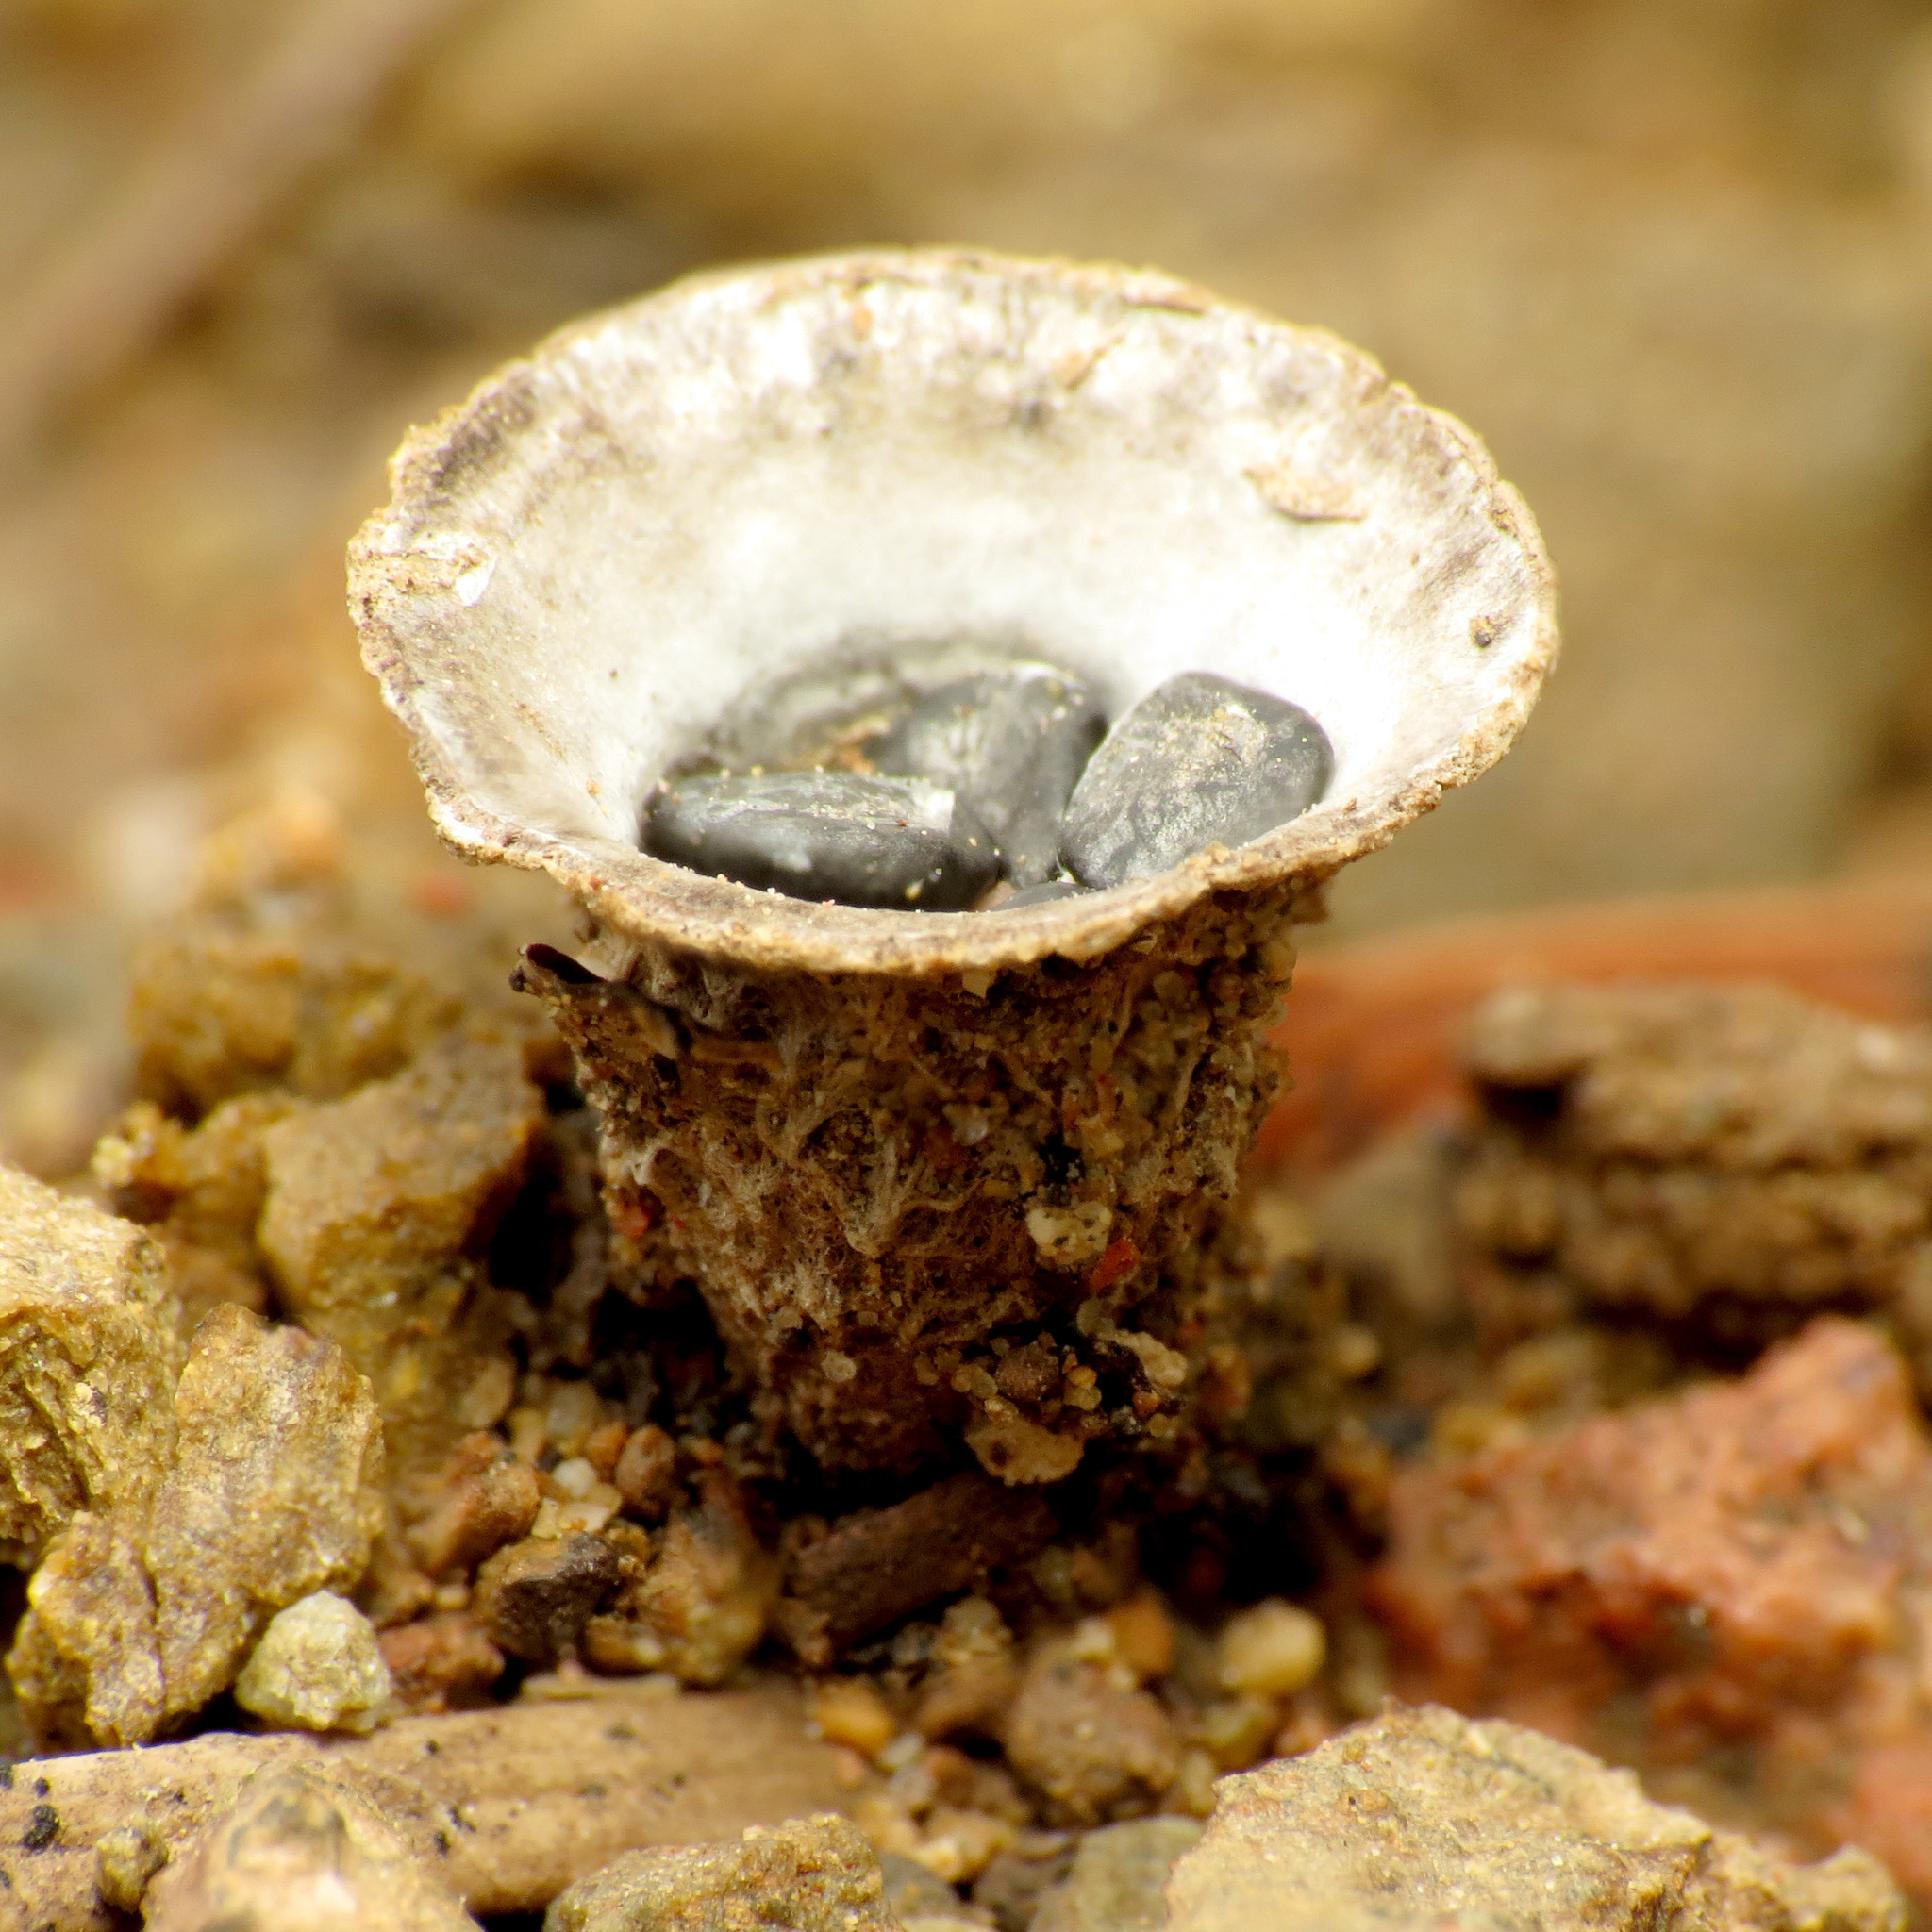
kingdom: Fungi
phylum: Basidiomycota
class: Agaricomycetes
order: Agaricales
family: Agaricaceae
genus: Cyathus
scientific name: Cyathus olla
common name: Field bird's nest
